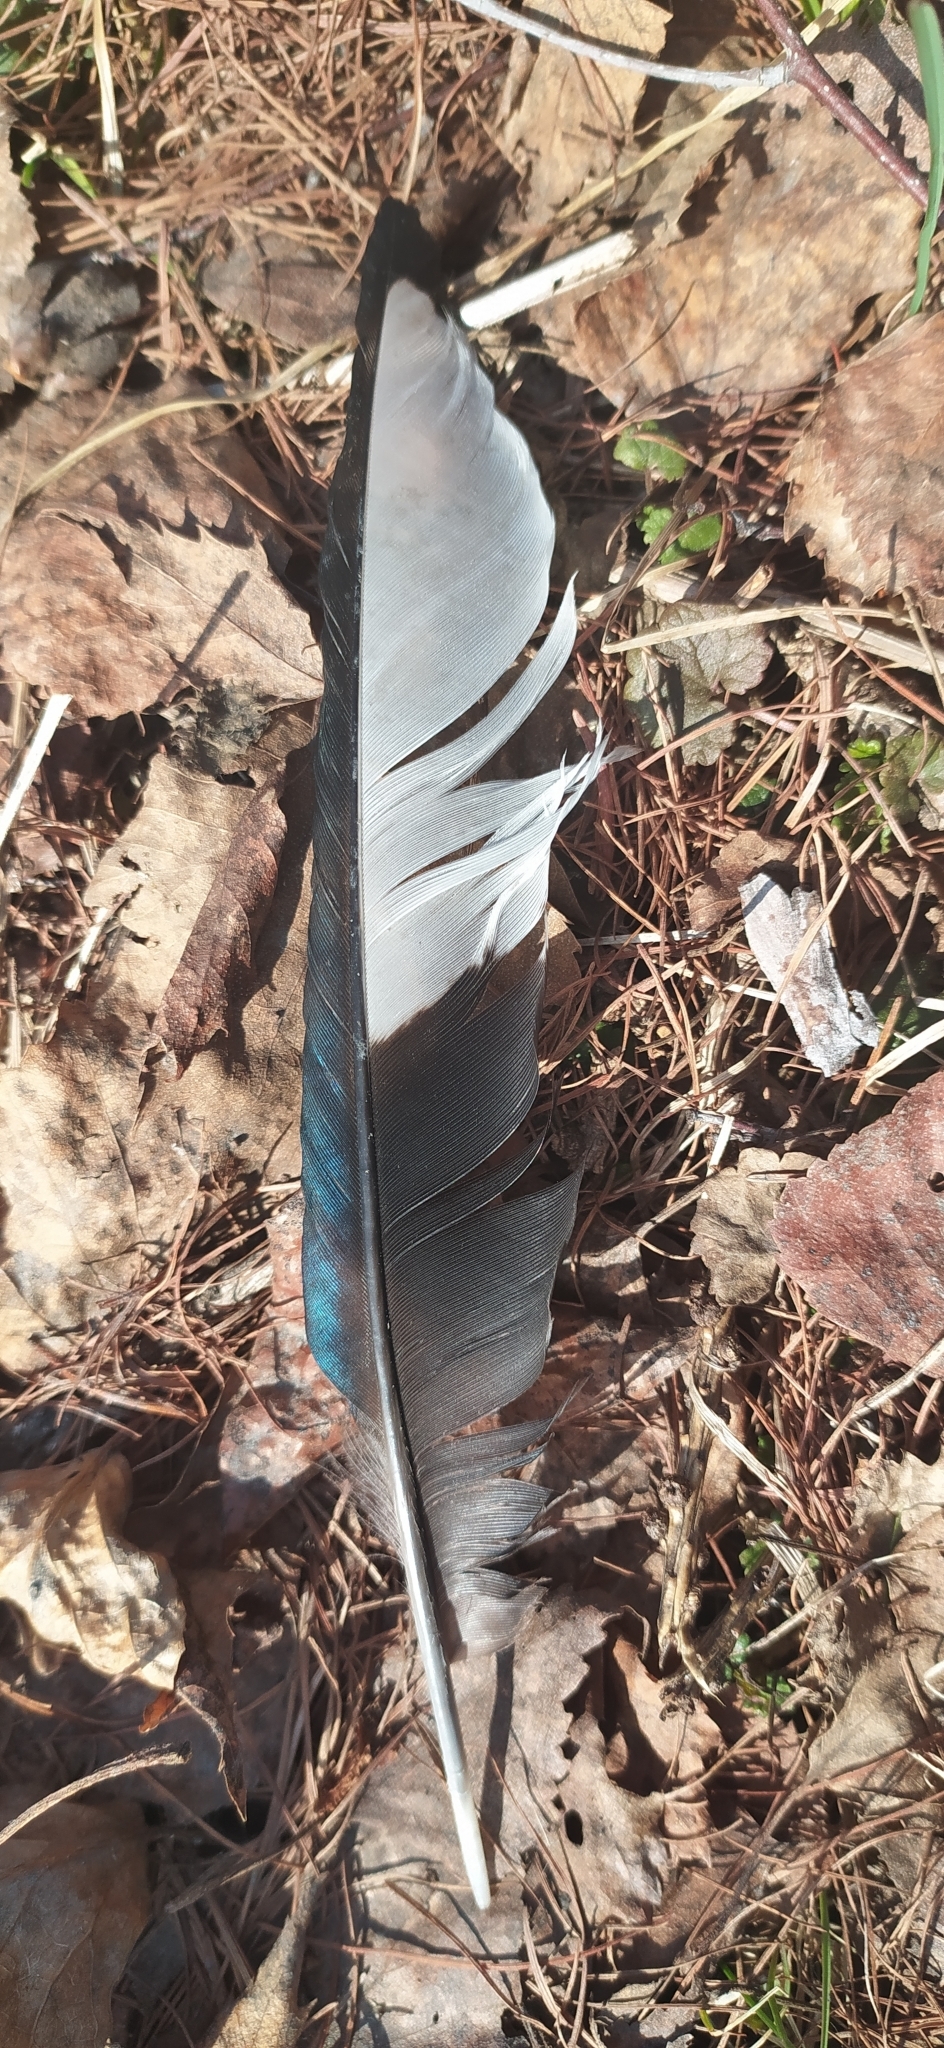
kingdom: Animalia
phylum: Chordata
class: Aves
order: Passeriformes
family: Corvidae
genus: Pica
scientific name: Pica pica
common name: Eurasian magpie
